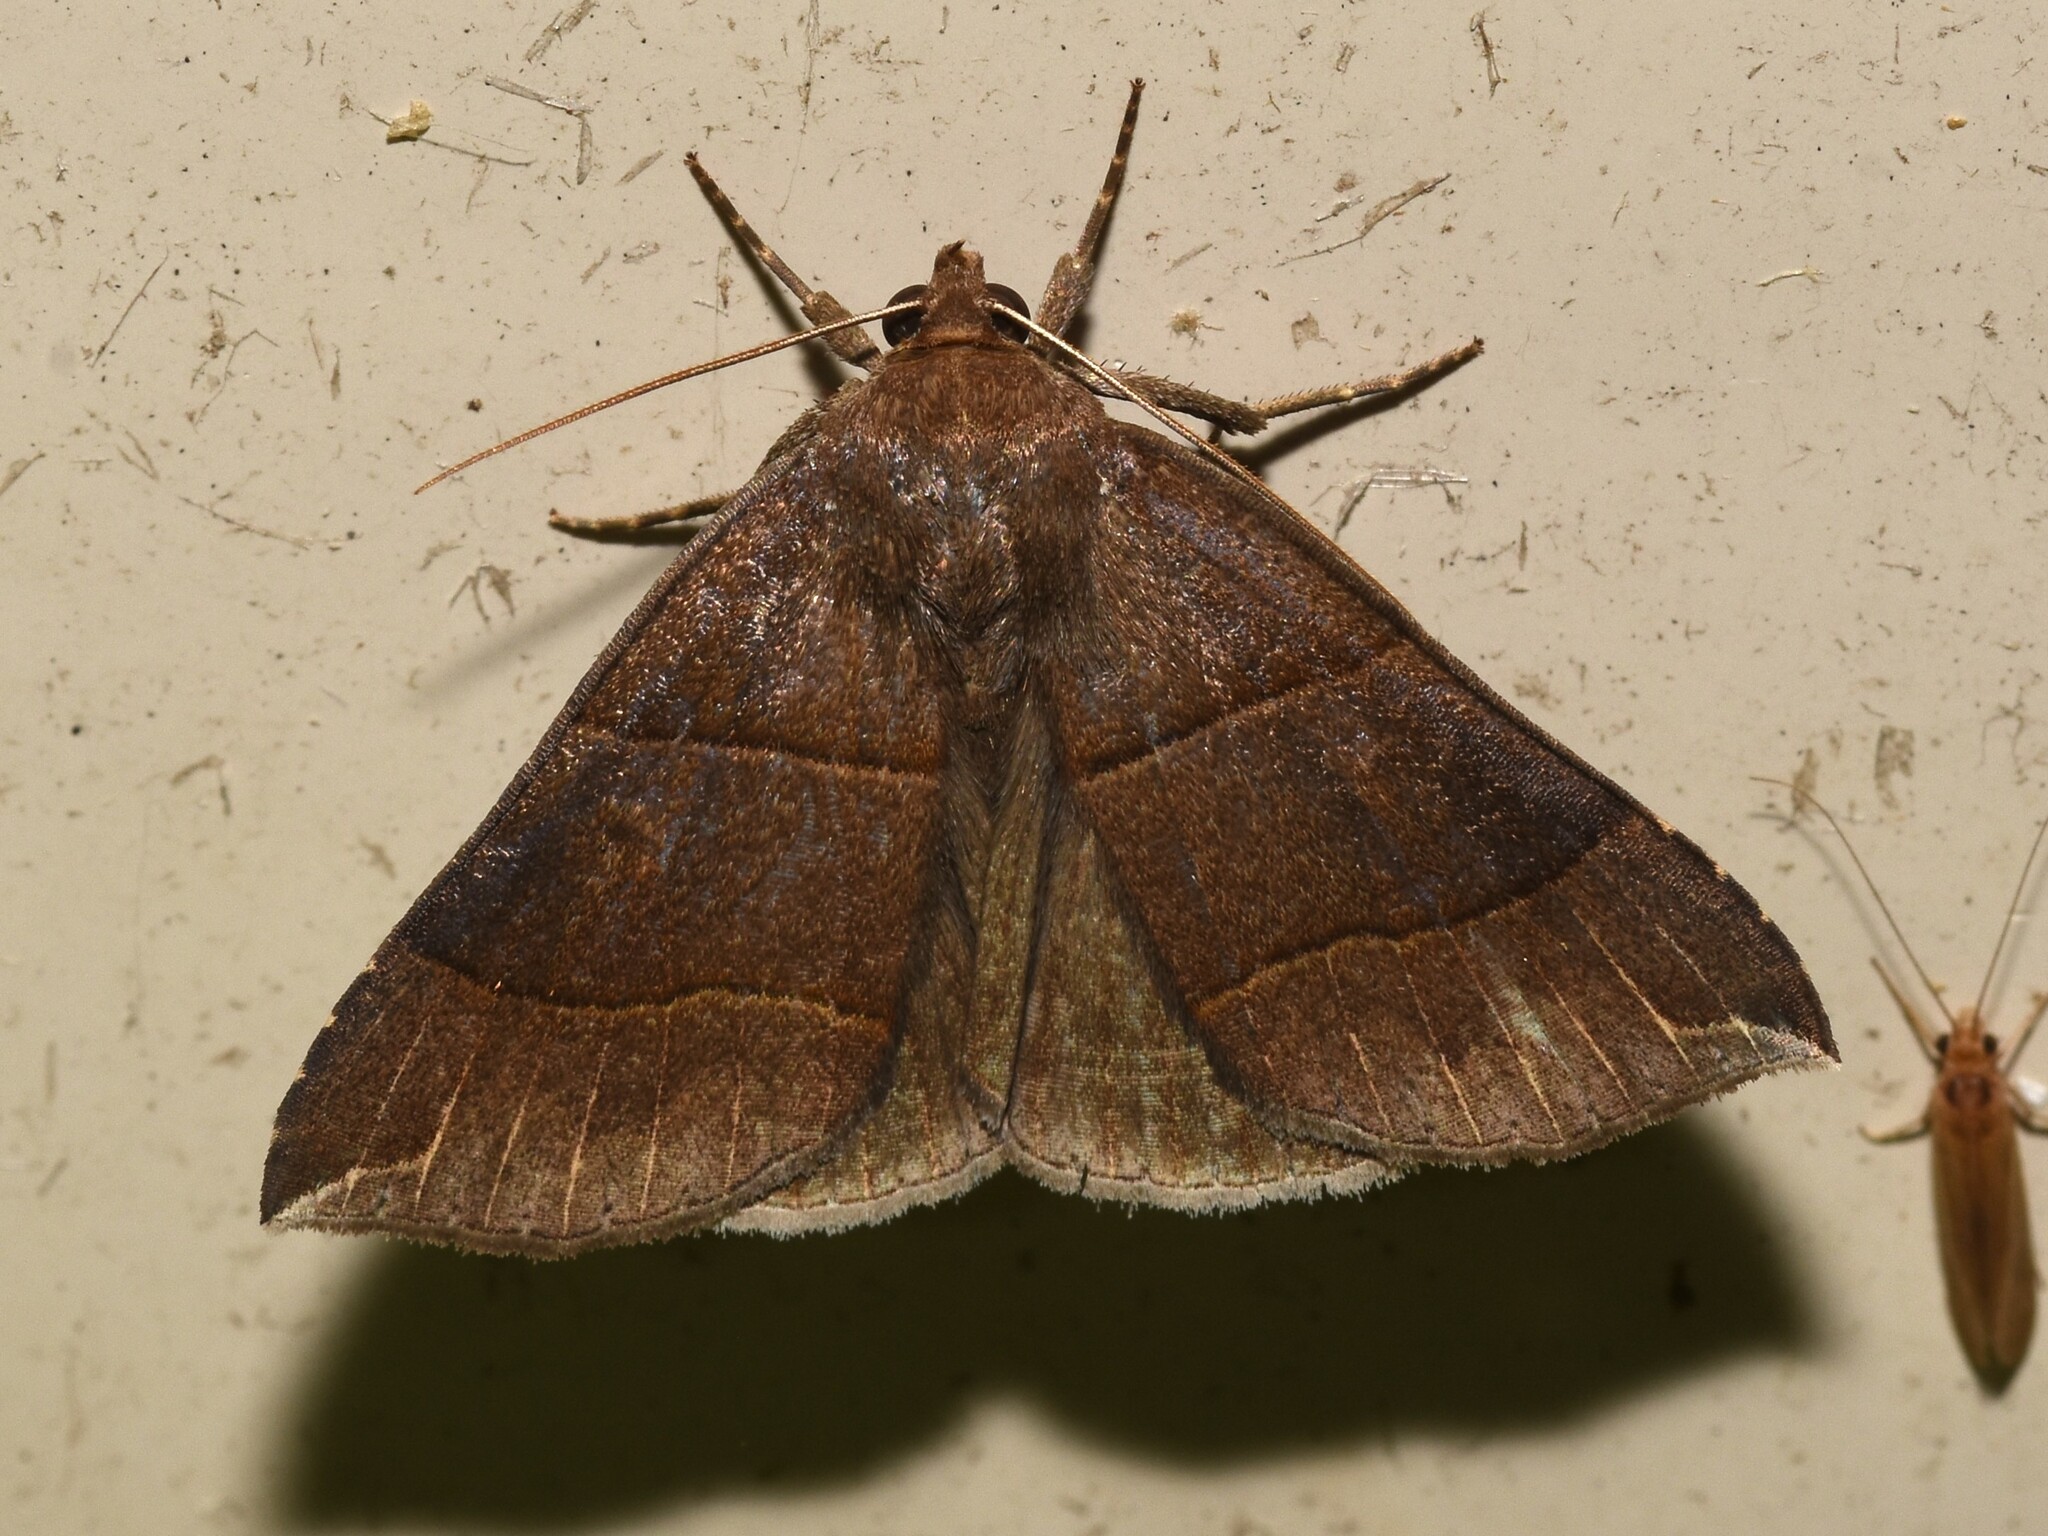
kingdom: Animalia
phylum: Arthropoda
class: Insecta
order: Lepidoptera
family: Erebidae
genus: Parallelia
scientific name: Parallelia bistriaris
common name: Maple looper moth
